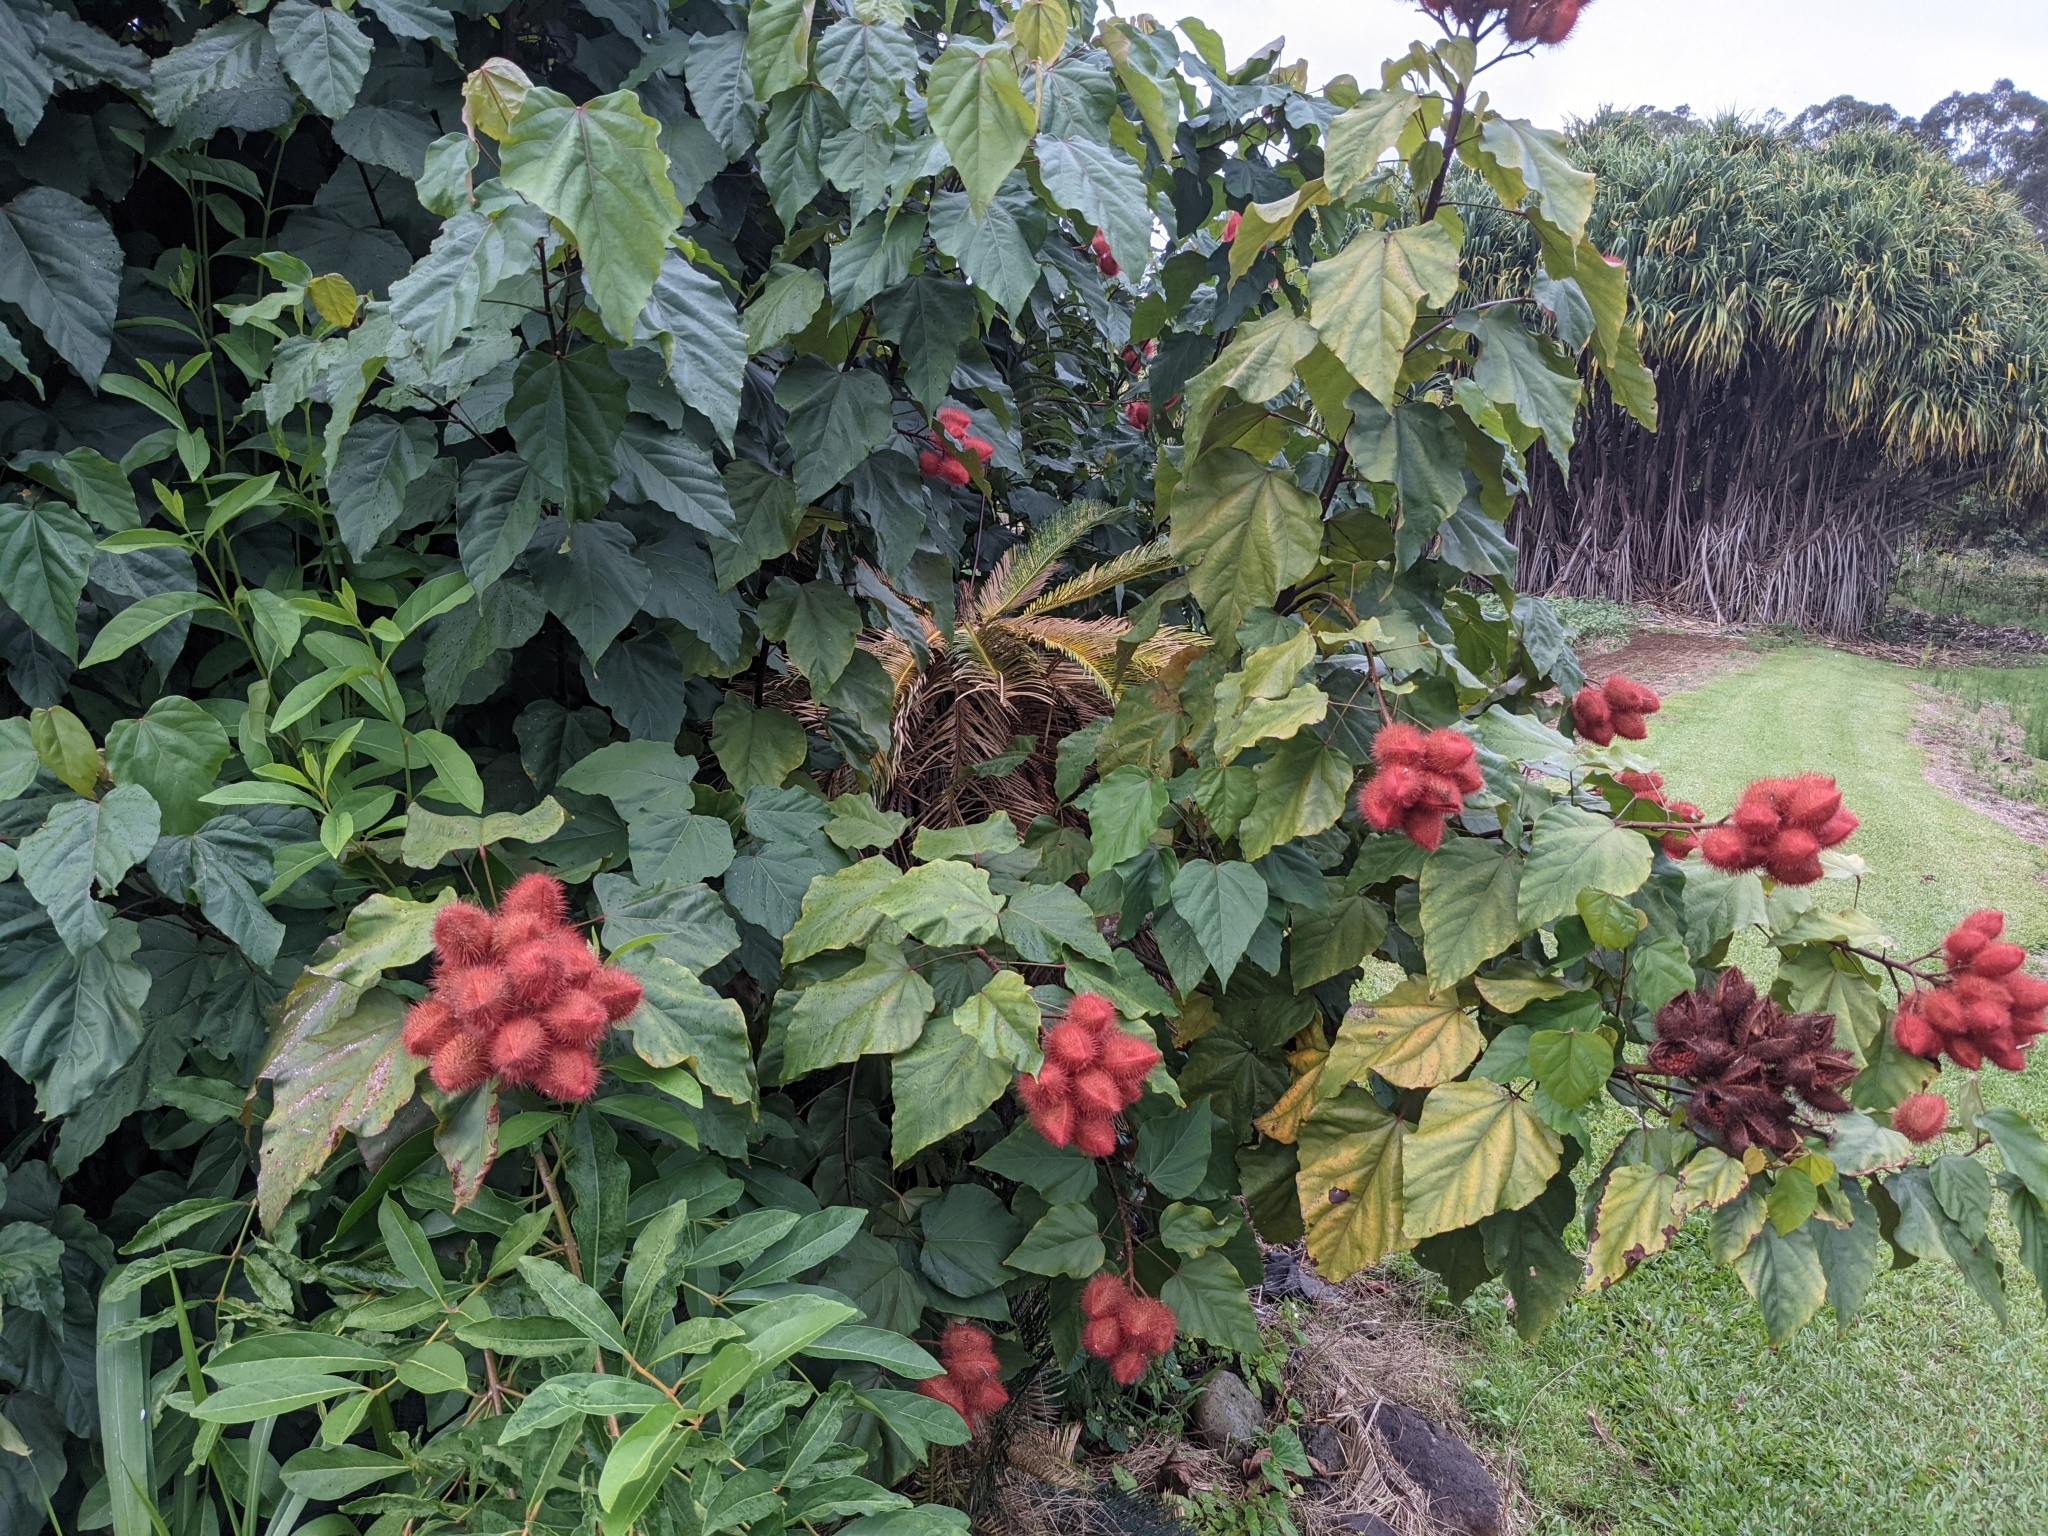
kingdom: Plantae
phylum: Tracheophyta
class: Magnoliopsida
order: Malvales
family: Bixaceae
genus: Bixa
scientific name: Bixa orellana
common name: Lipsticktree
